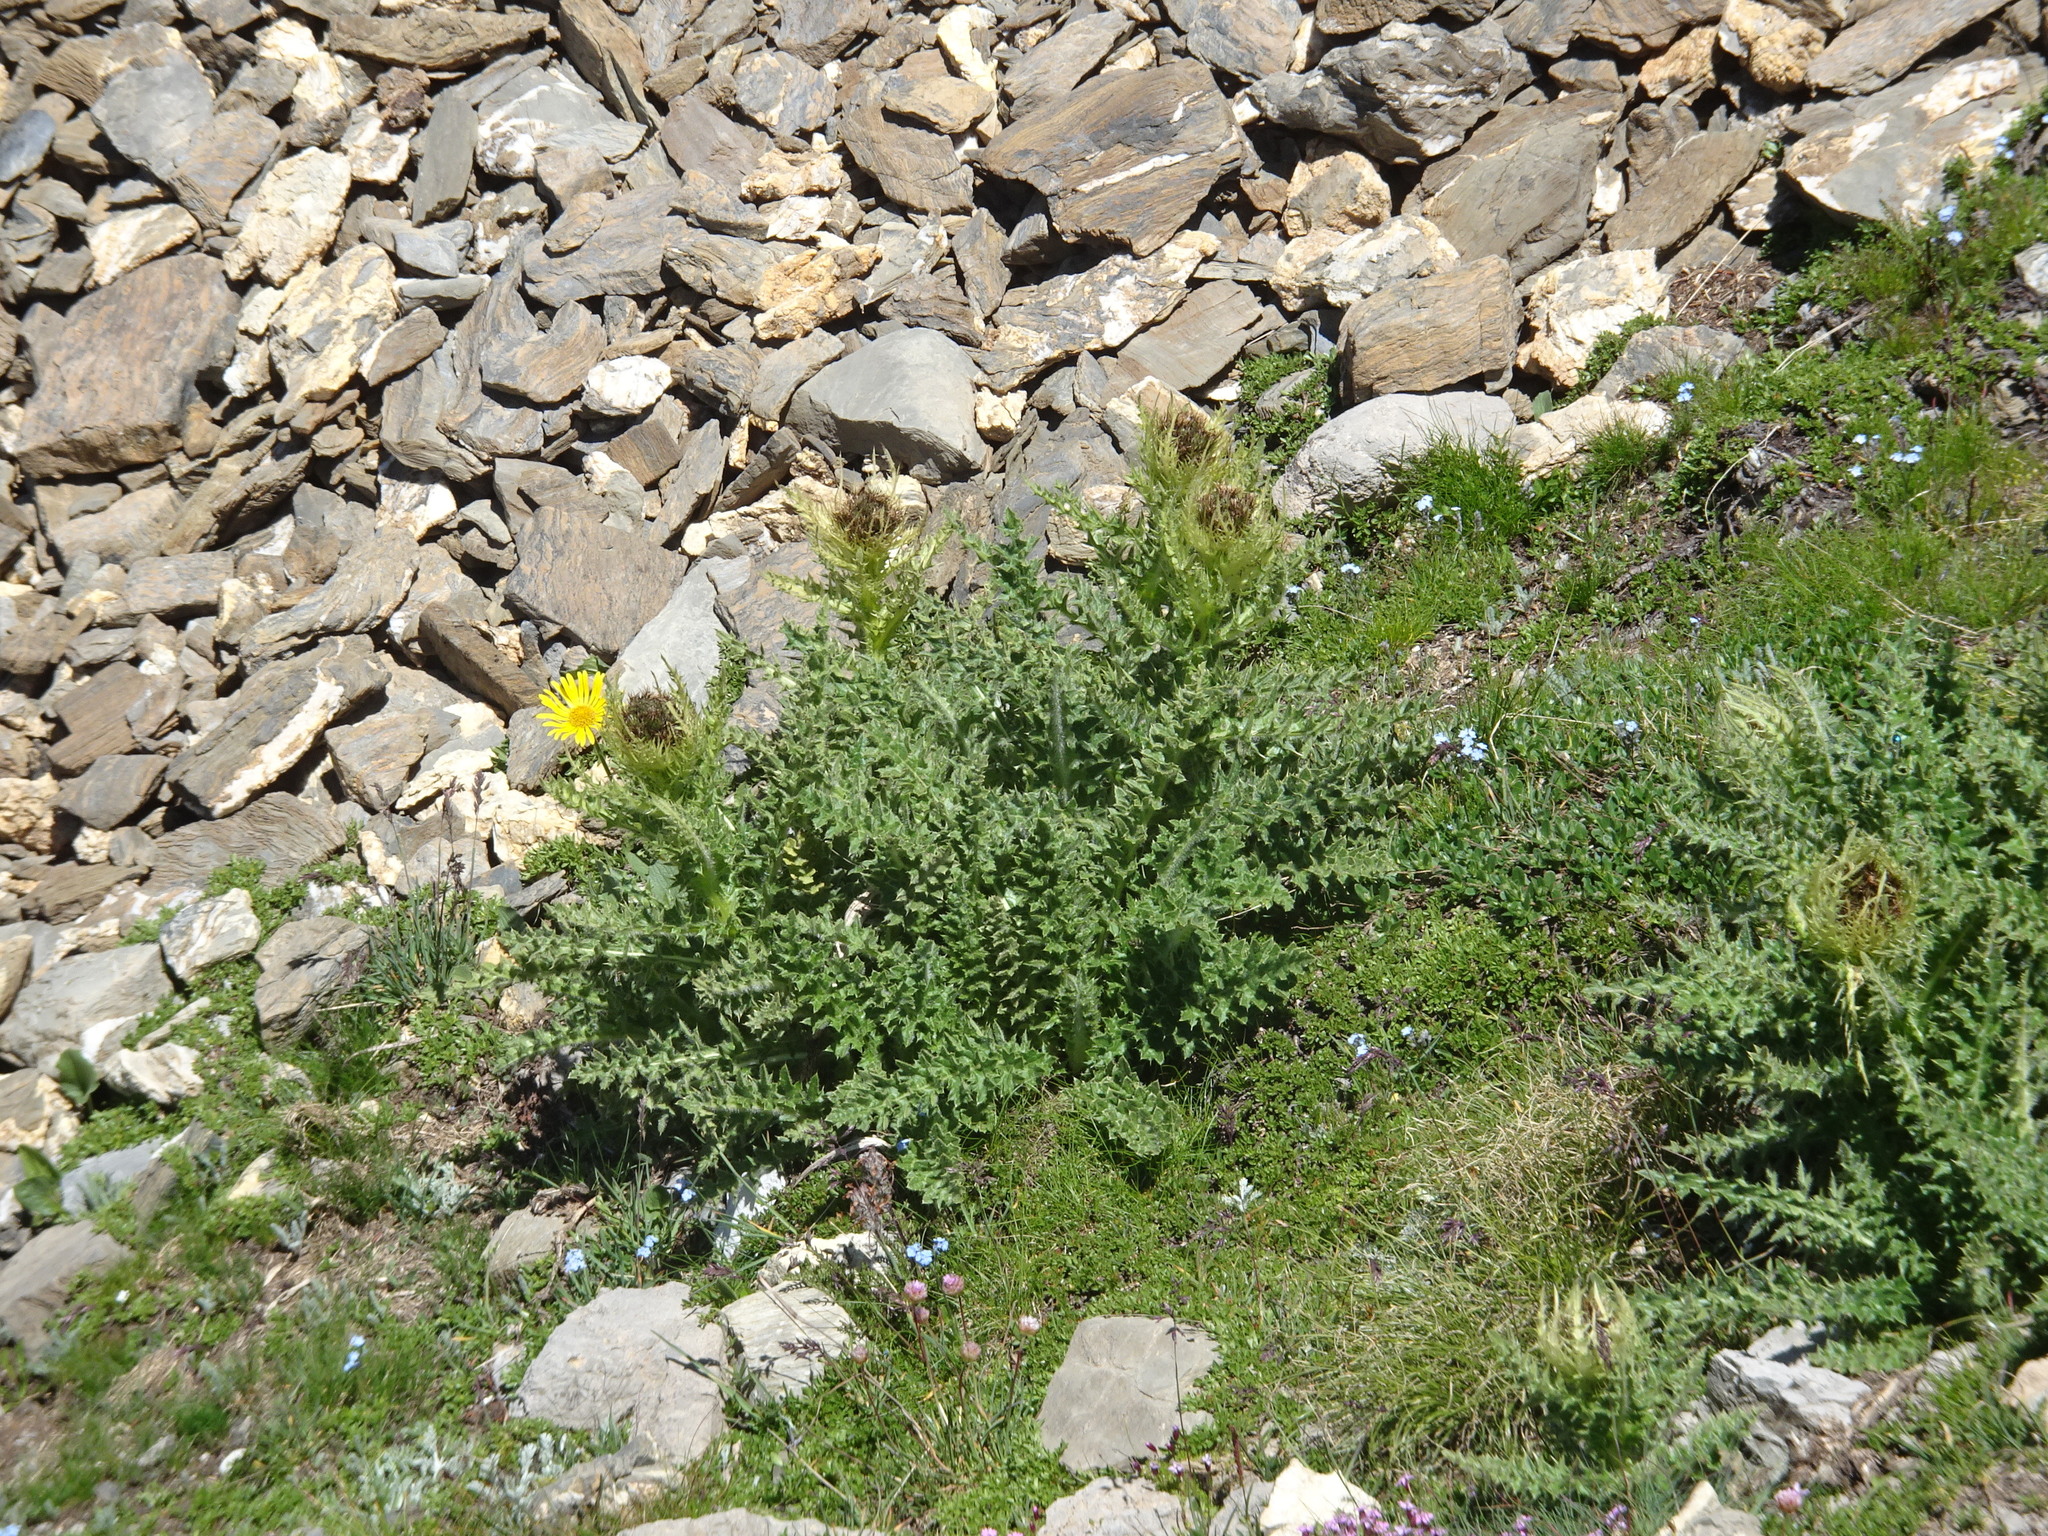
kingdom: Plantae
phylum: Tracheophyta
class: Magnoliopsida
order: Asterales
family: Asteraceae
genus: Cirsium
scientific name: Cirsium spinosissimum
